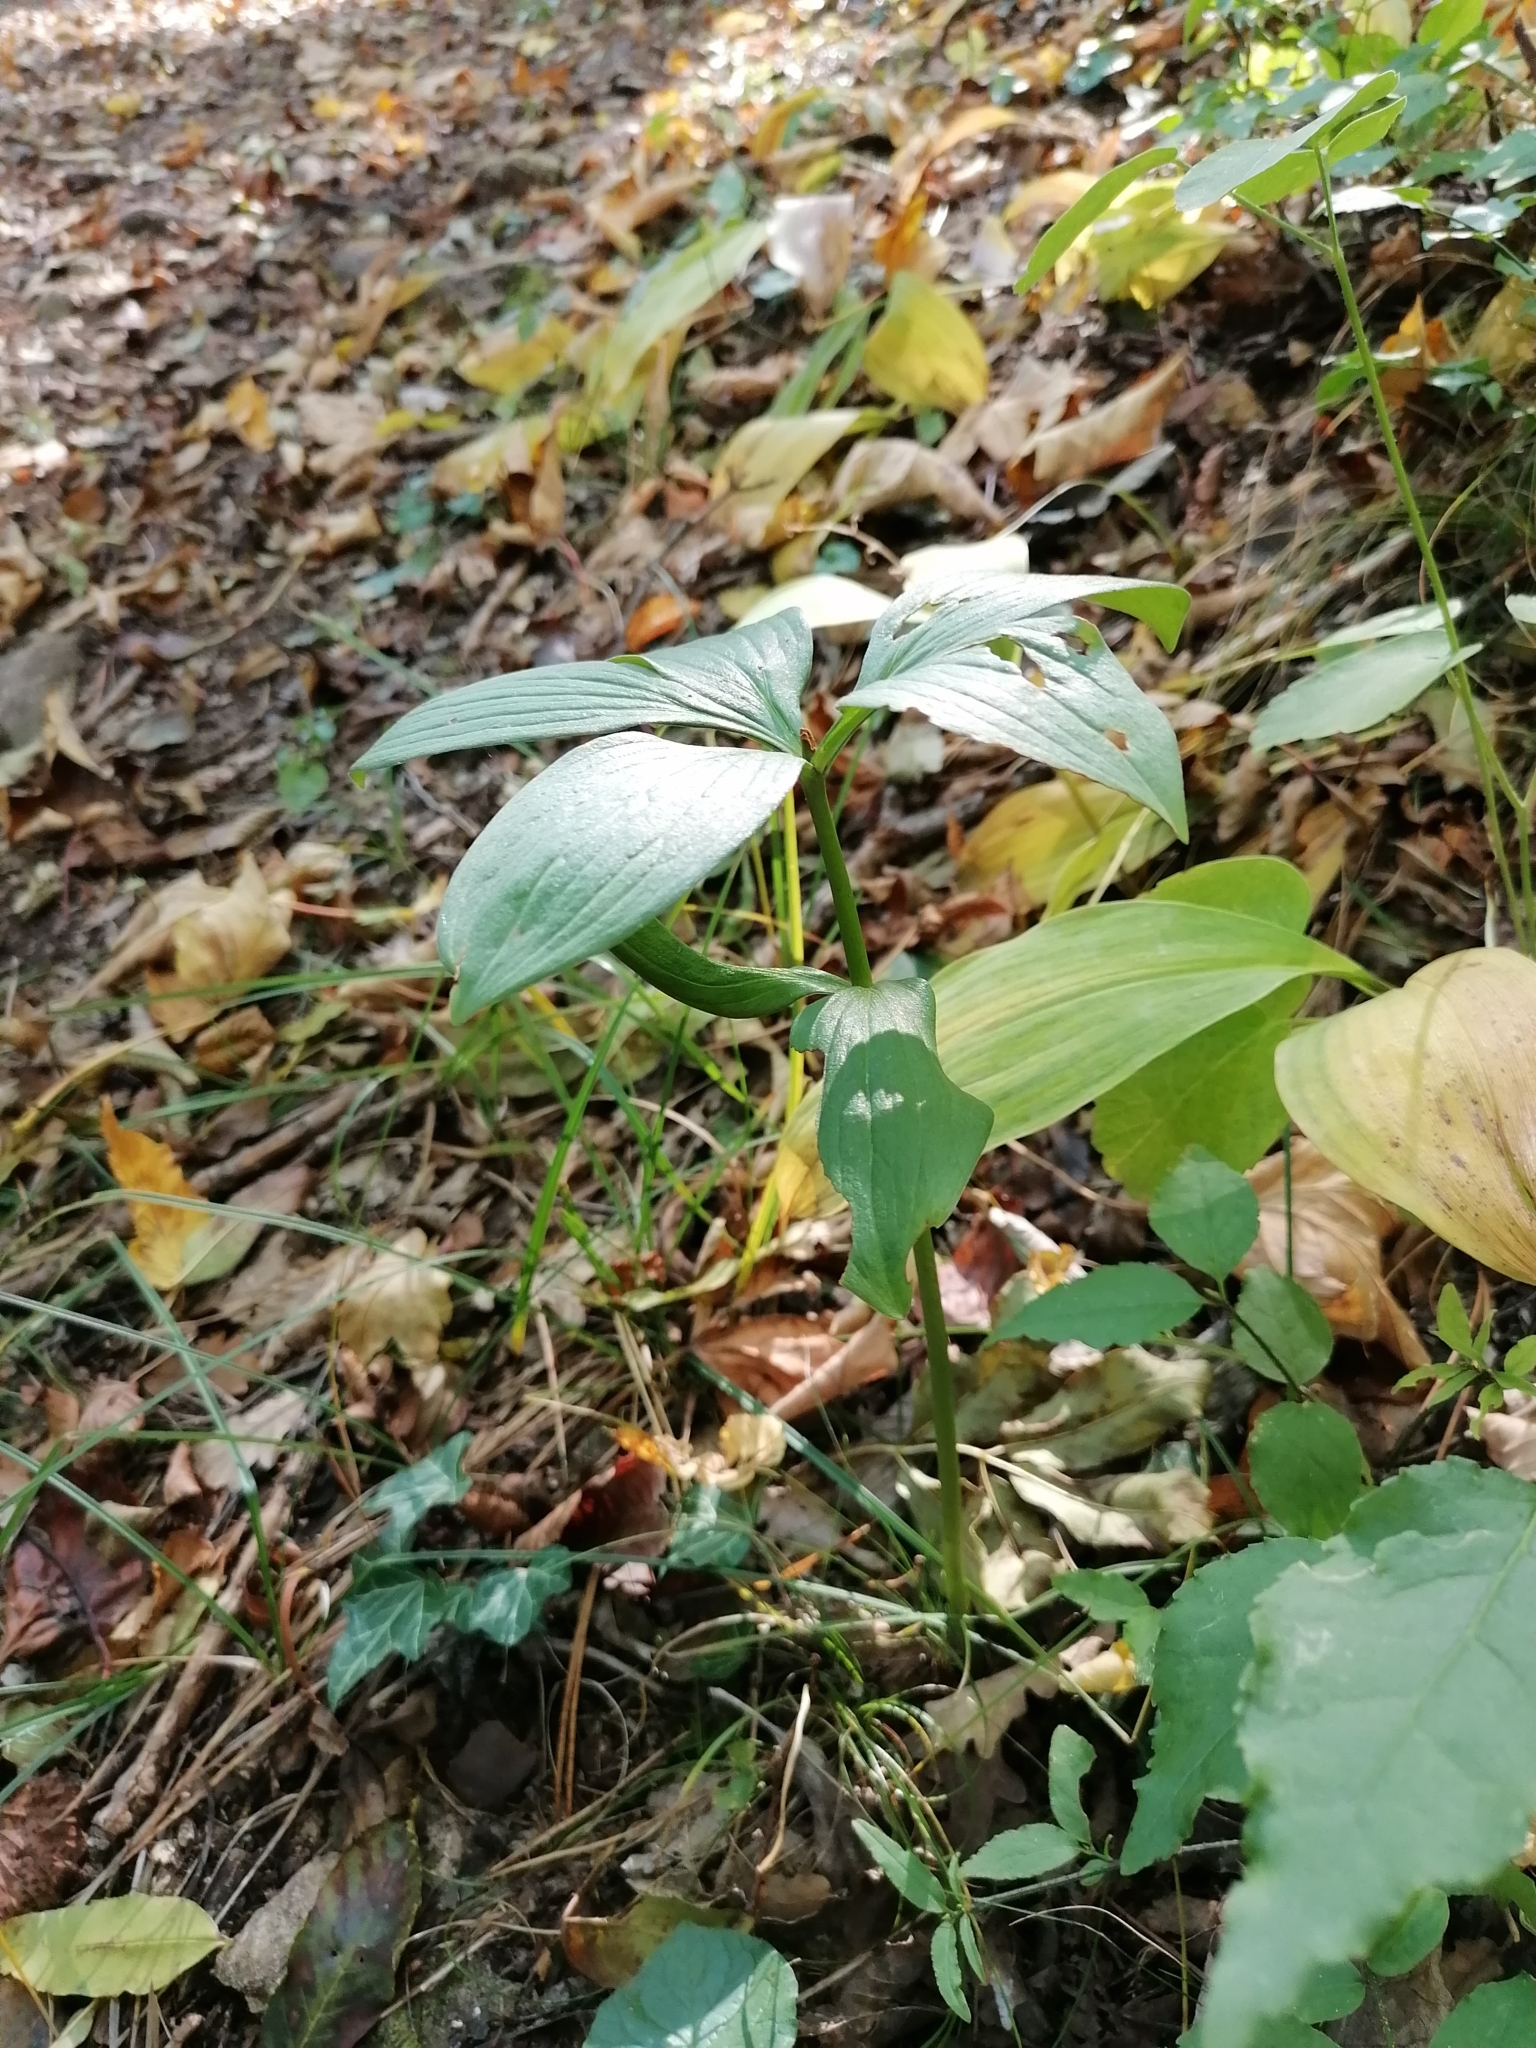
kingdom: Plantae
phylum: Tracheophyta
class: Liliopsida
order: Liliales
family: Liliaceae
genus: Lilium
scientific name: Lilium martagon
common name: Martagon lily
